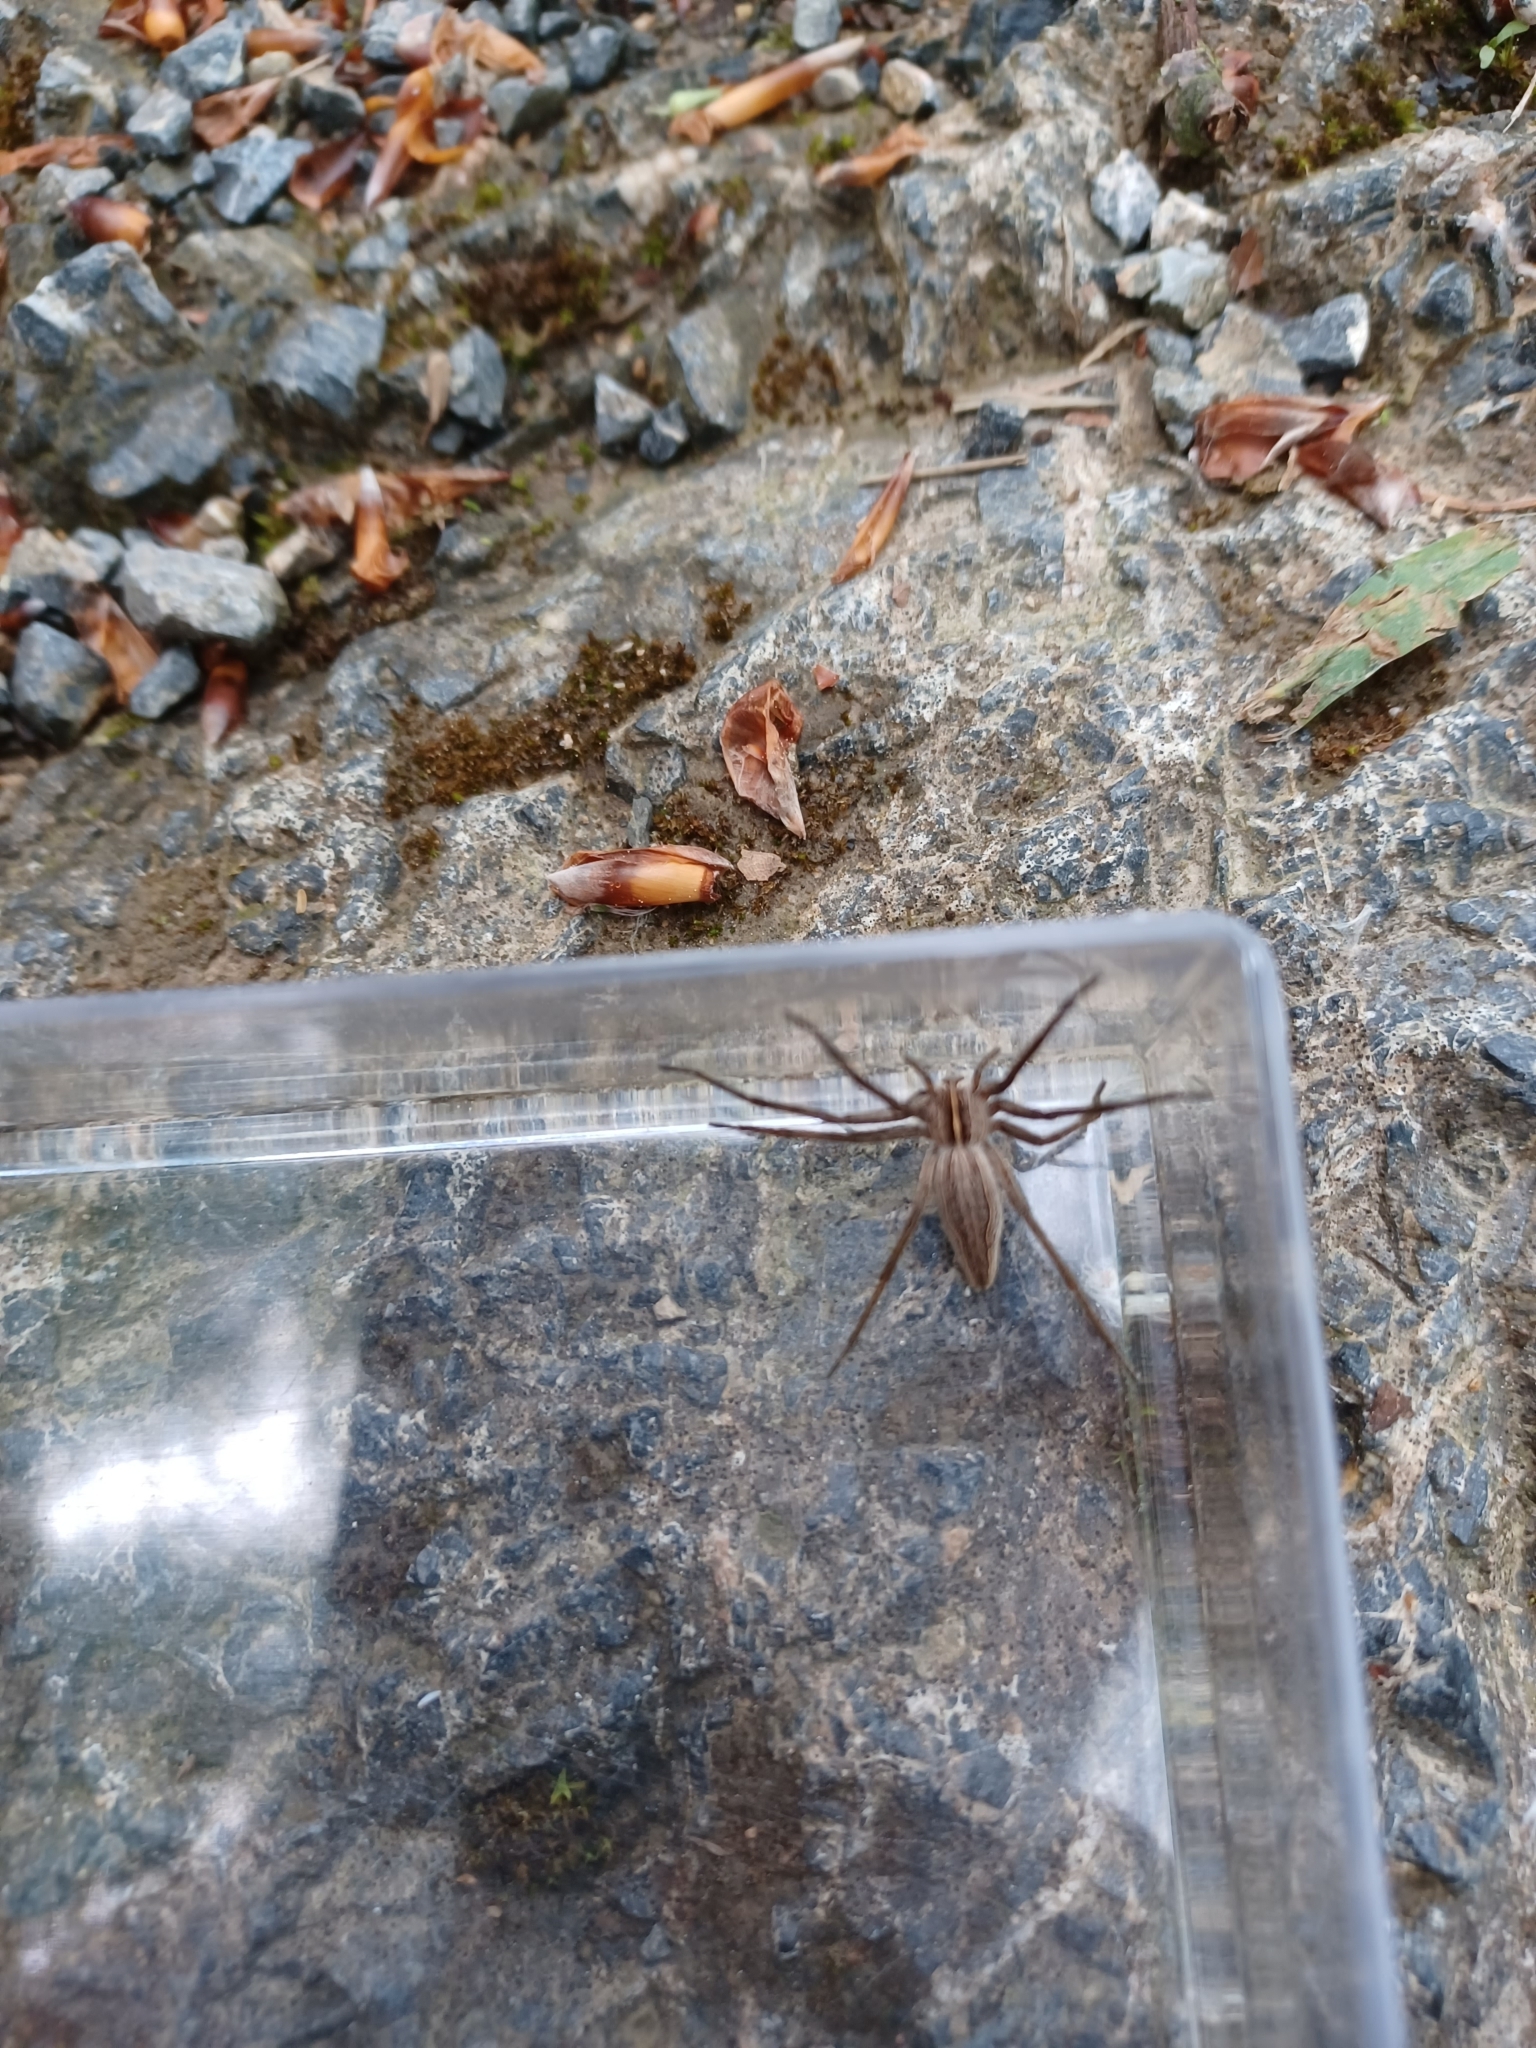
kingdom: Animalia
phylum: Arthropoda
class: Arachnida
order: Araneae
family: Pisauridae
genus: Pisaura
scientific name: Pisaura mirabilis
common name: Tent spider
